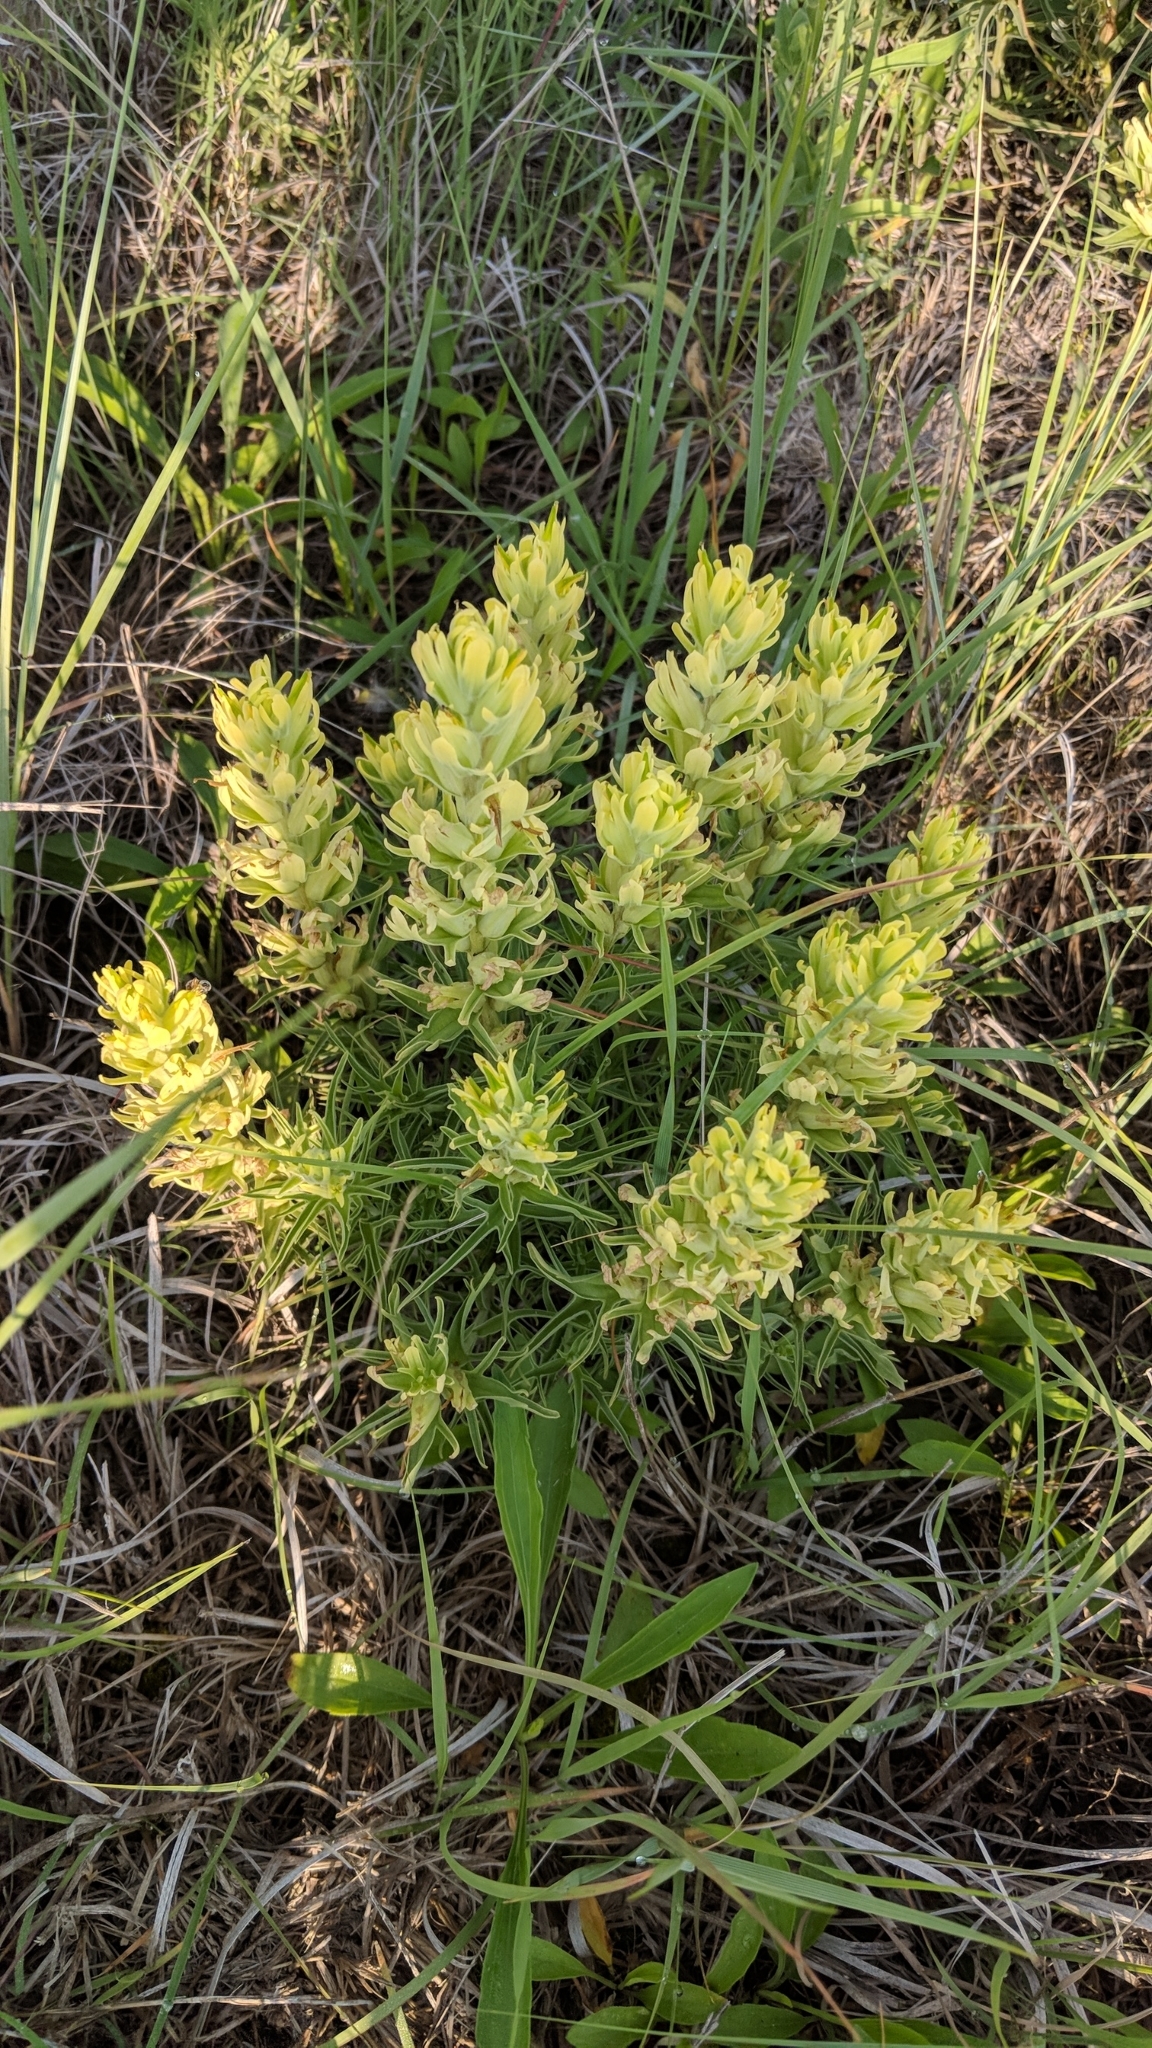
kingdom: Plantae
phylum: Tracheophyta
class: Magnoliopsida
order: Lamiales
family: Orobanchaceae
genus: Castilleja
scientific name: Castilleja citrina
